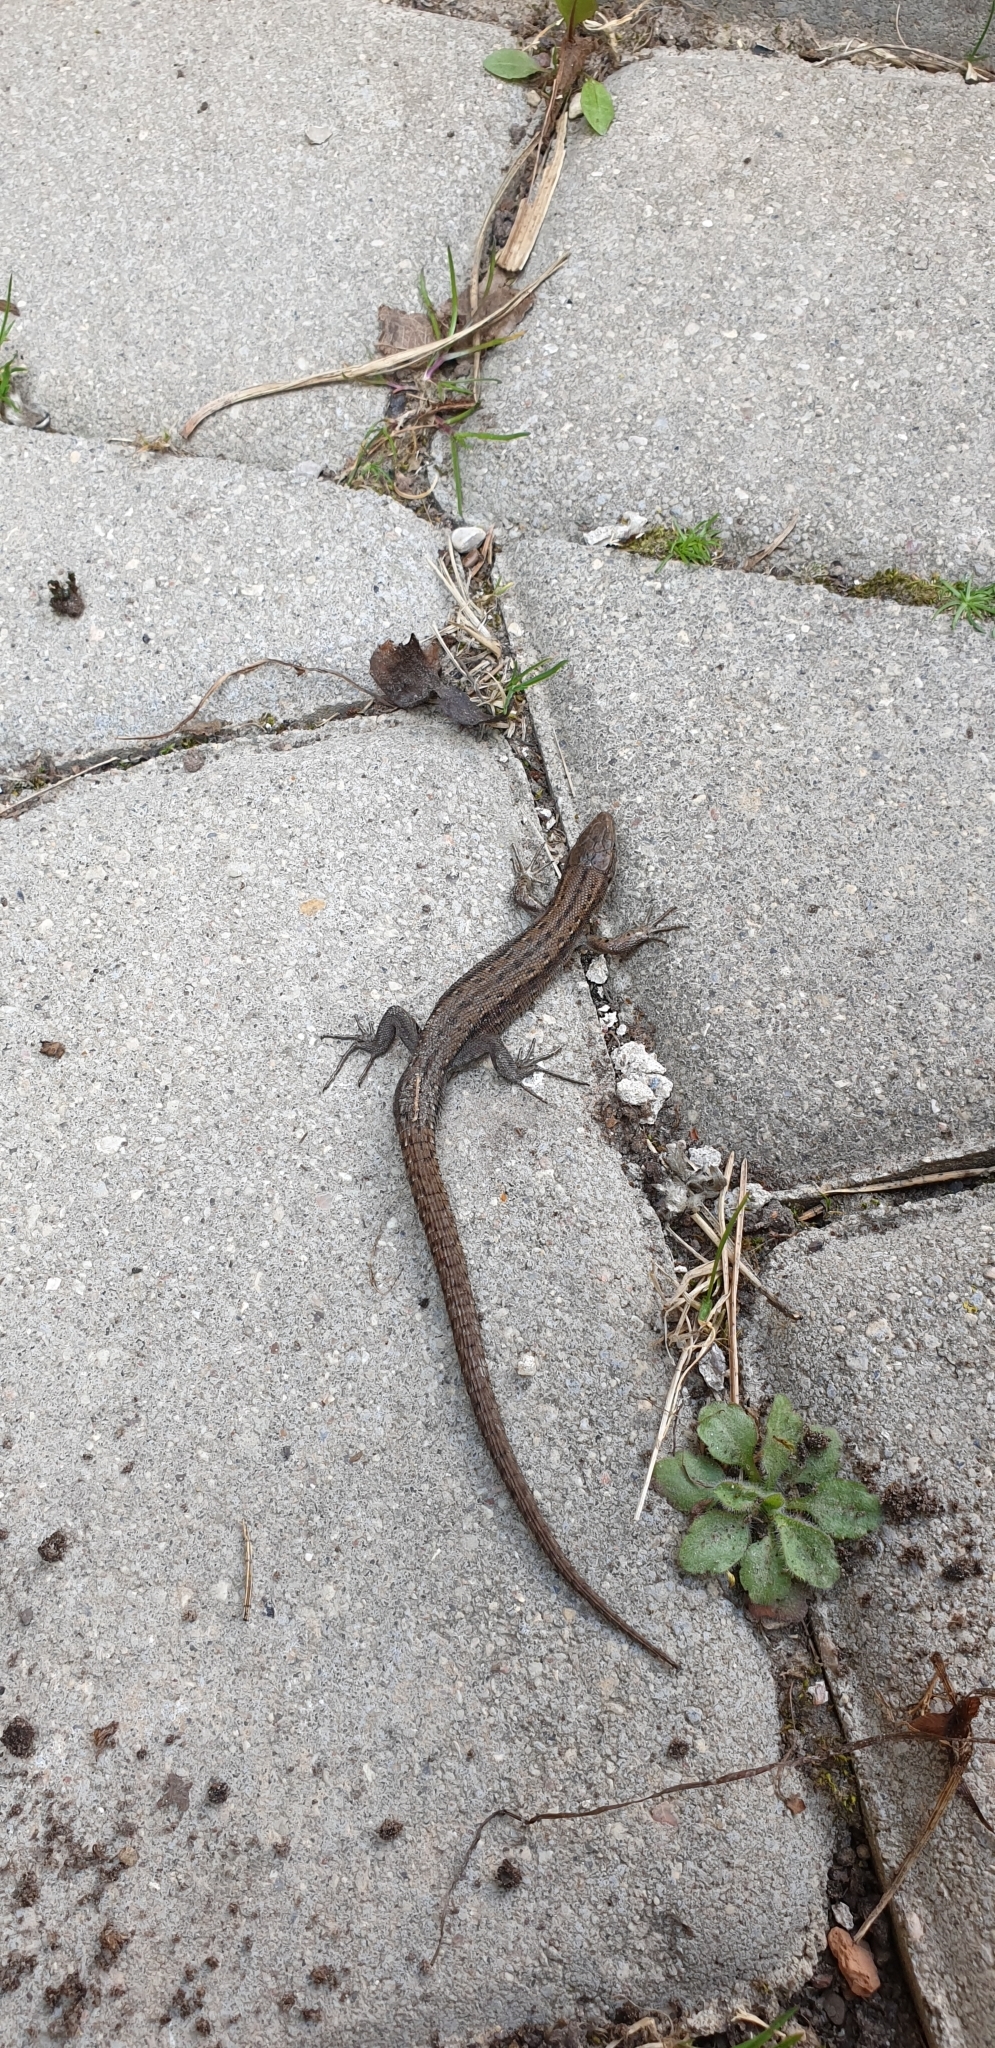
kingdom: Animalia
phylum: Chordata
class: Squamata
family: Lacertidae
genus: Zootoca
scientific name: Zootoca vivipara
